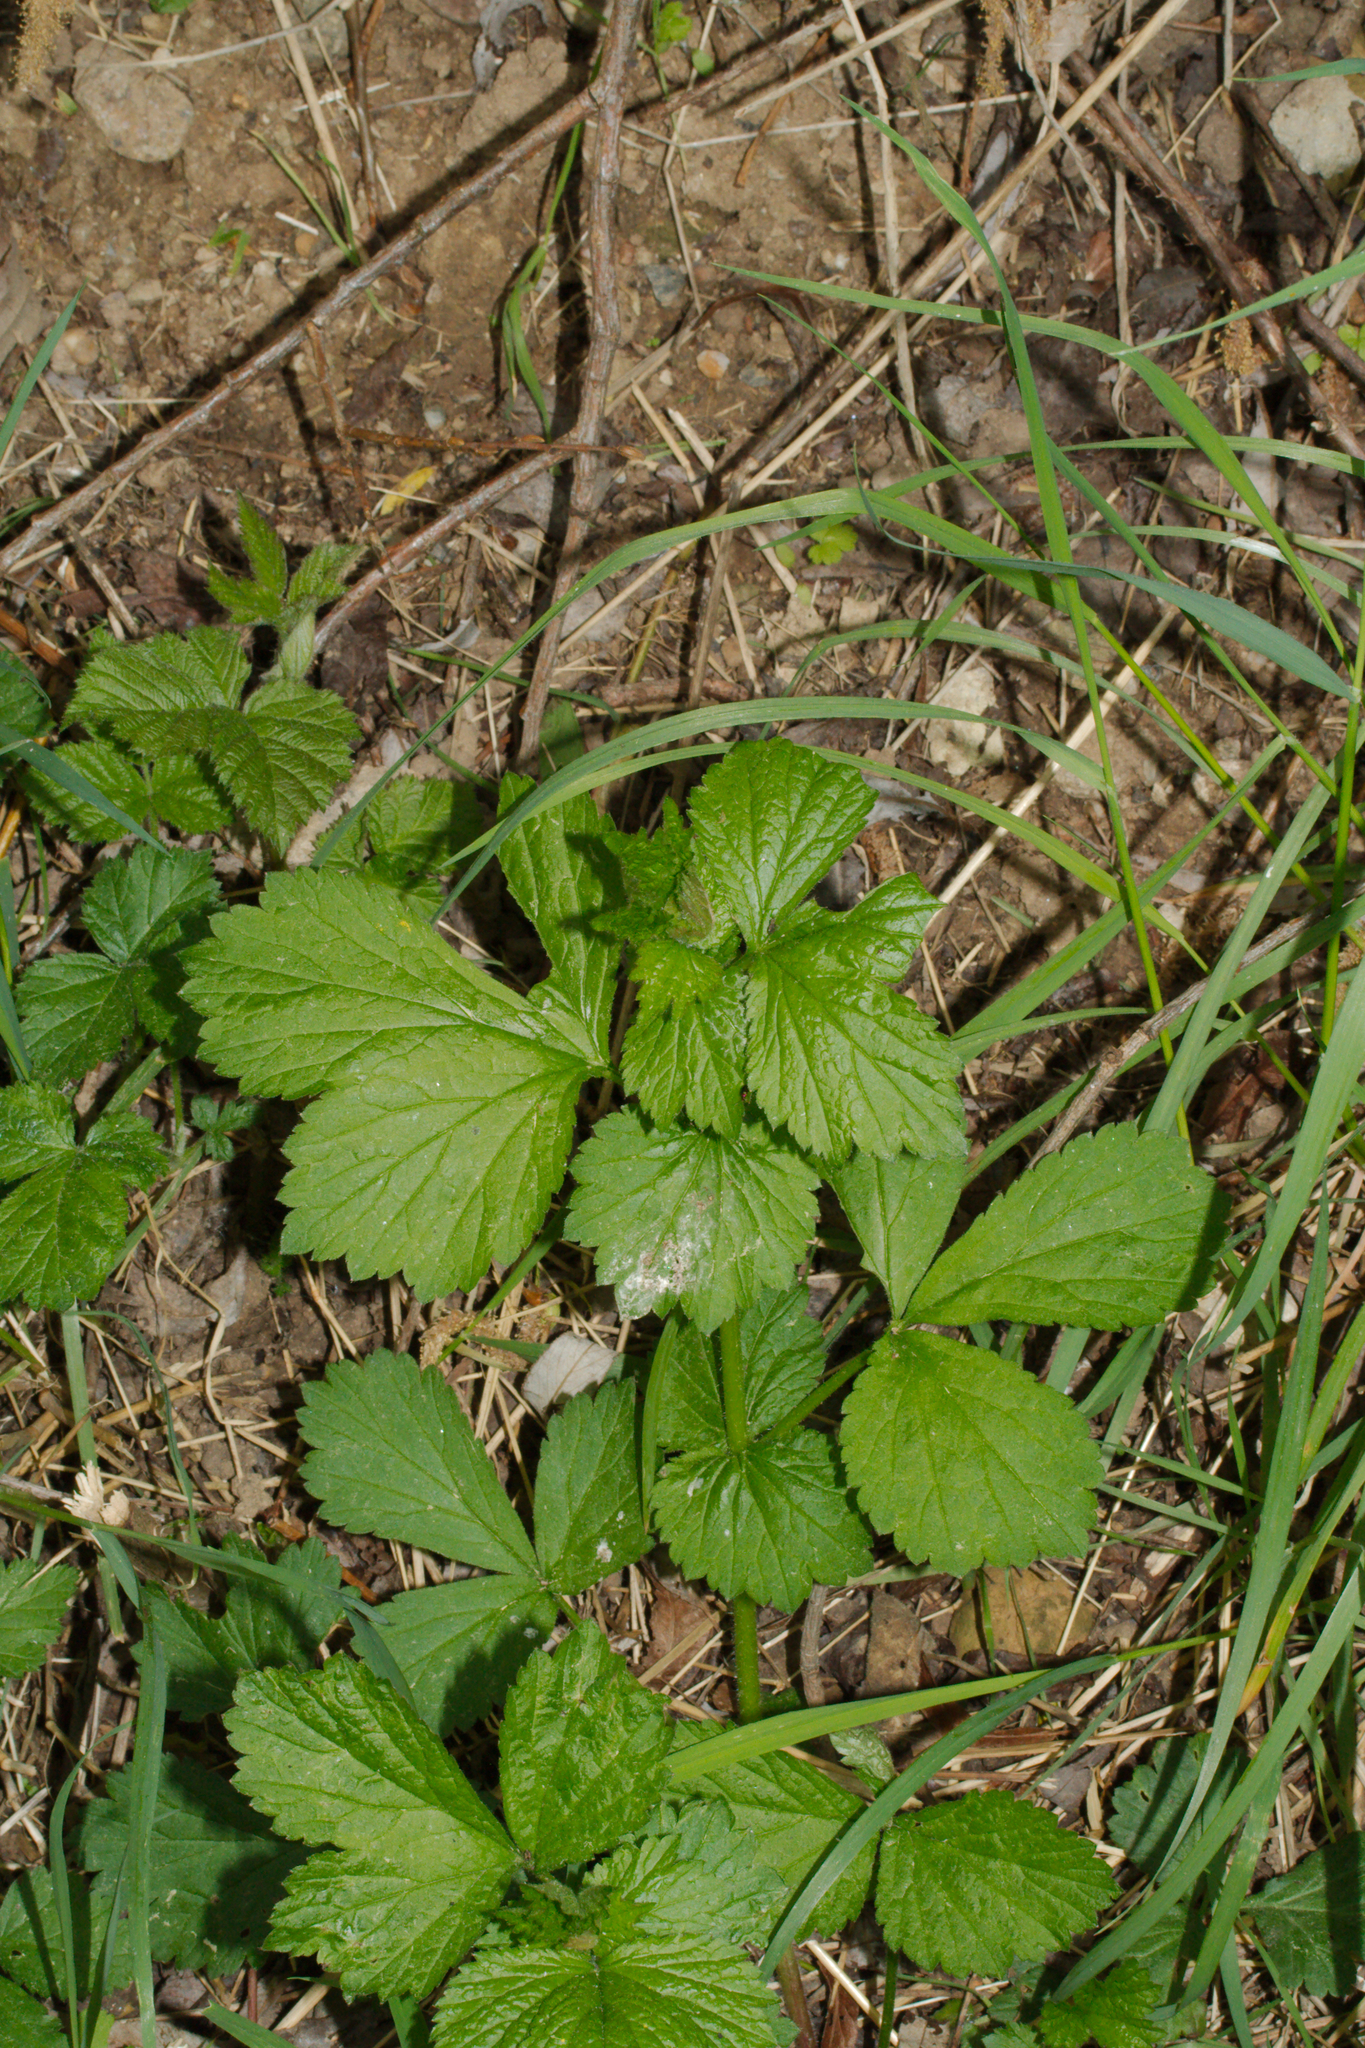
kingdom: Plantae
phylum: Tracheophyta
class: Magnoliopsida
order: Rosales
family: Rosaceae
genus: Geum
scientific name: Geum urbanum
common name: Wood avens
